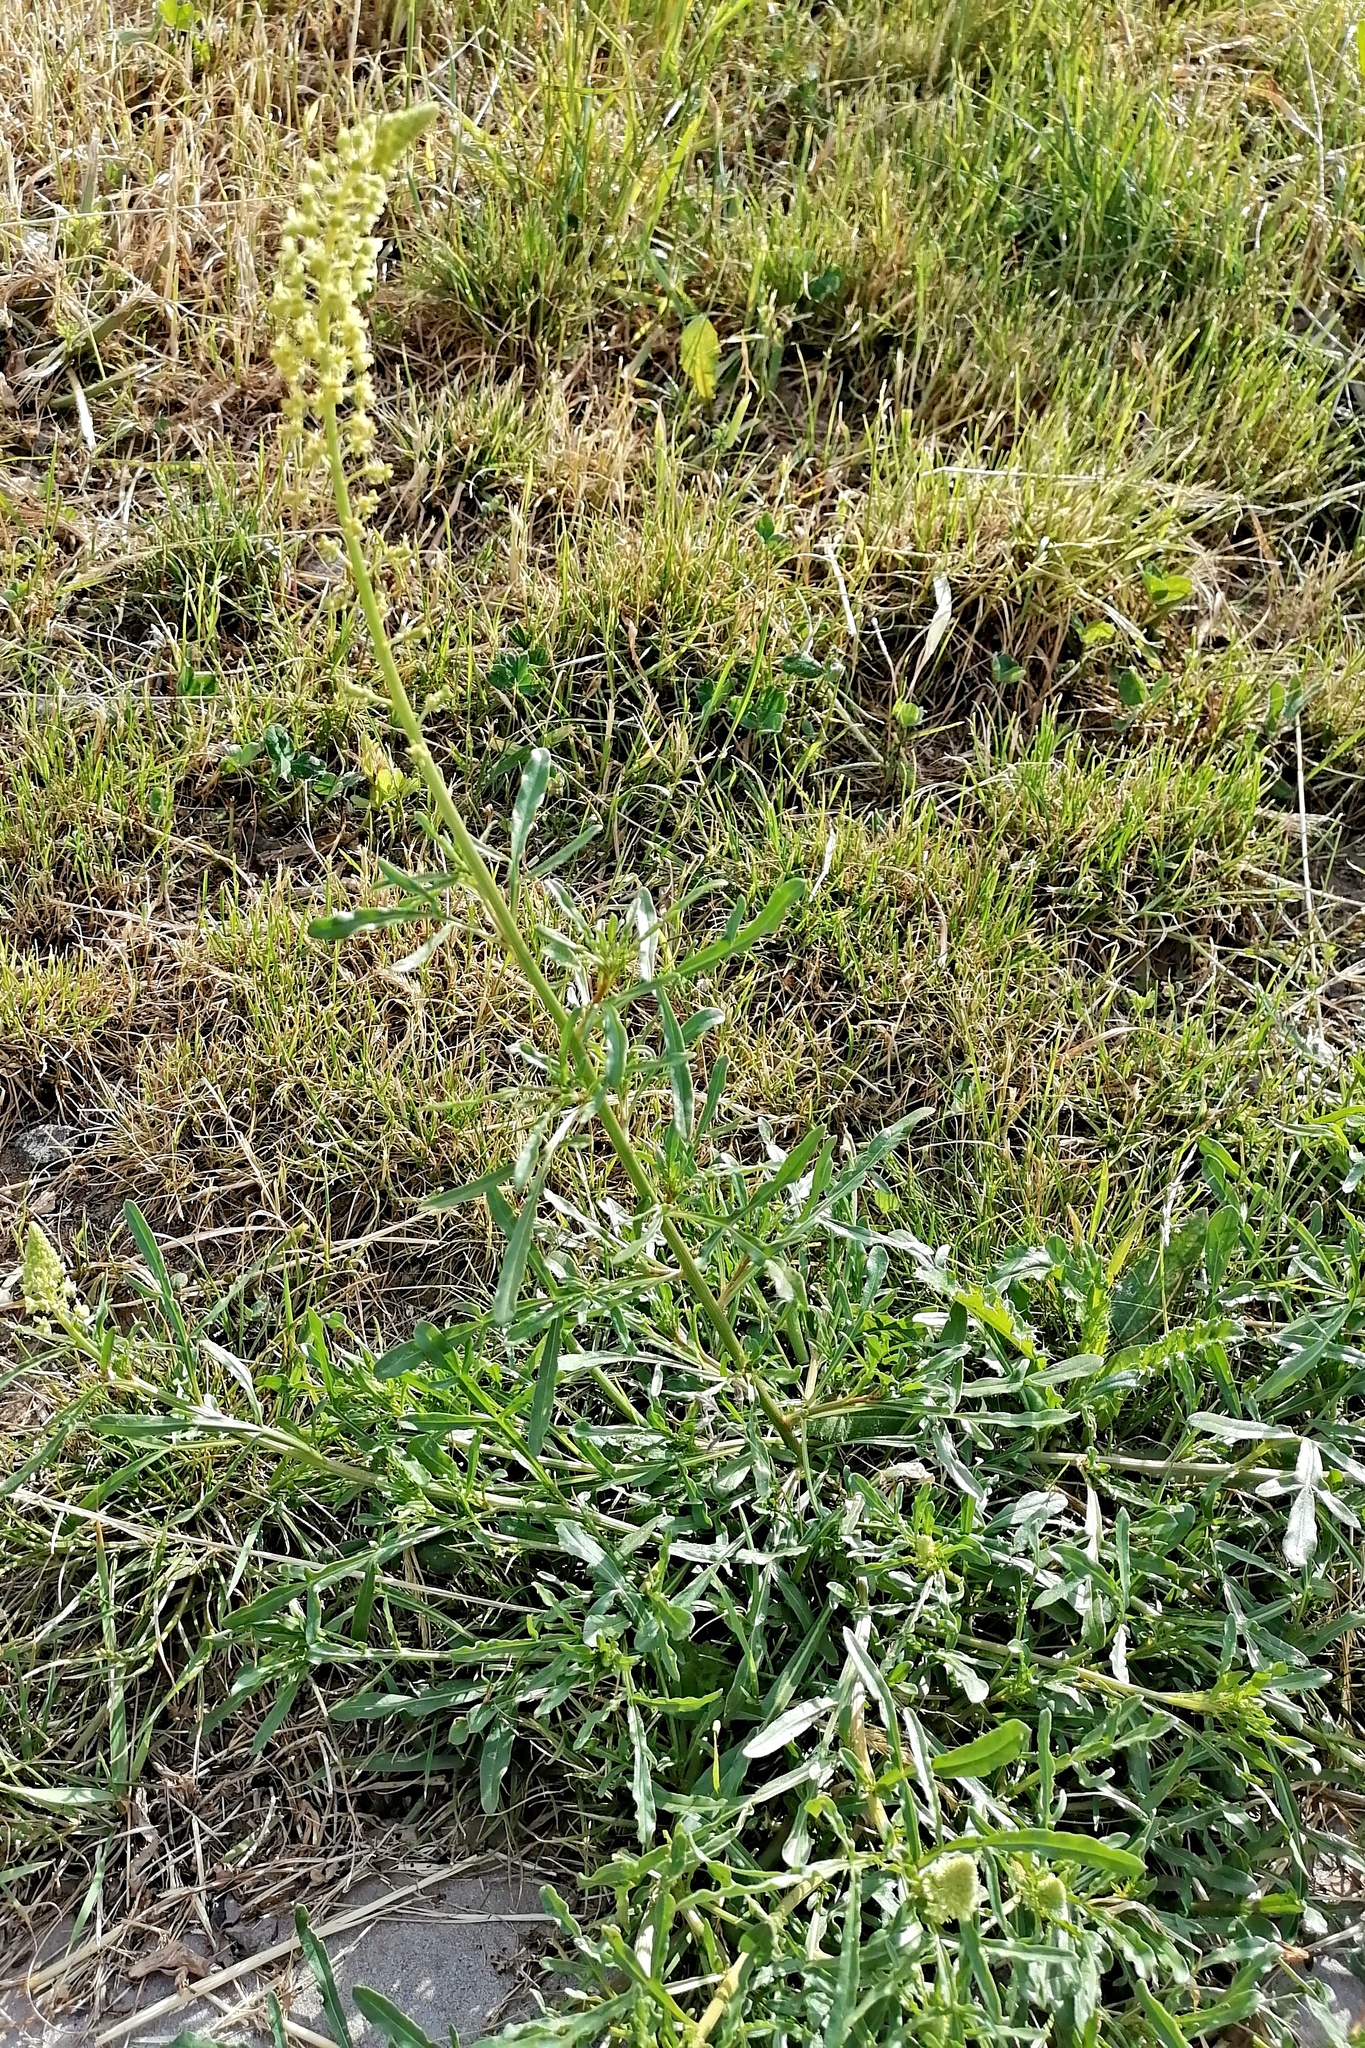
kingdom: Plantae
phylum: Tracheophyta
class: Magnoliopsida
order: Brassicales
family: Resedaceae
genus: Reseda
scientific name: Reseda lutea
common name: Wild mignonette
